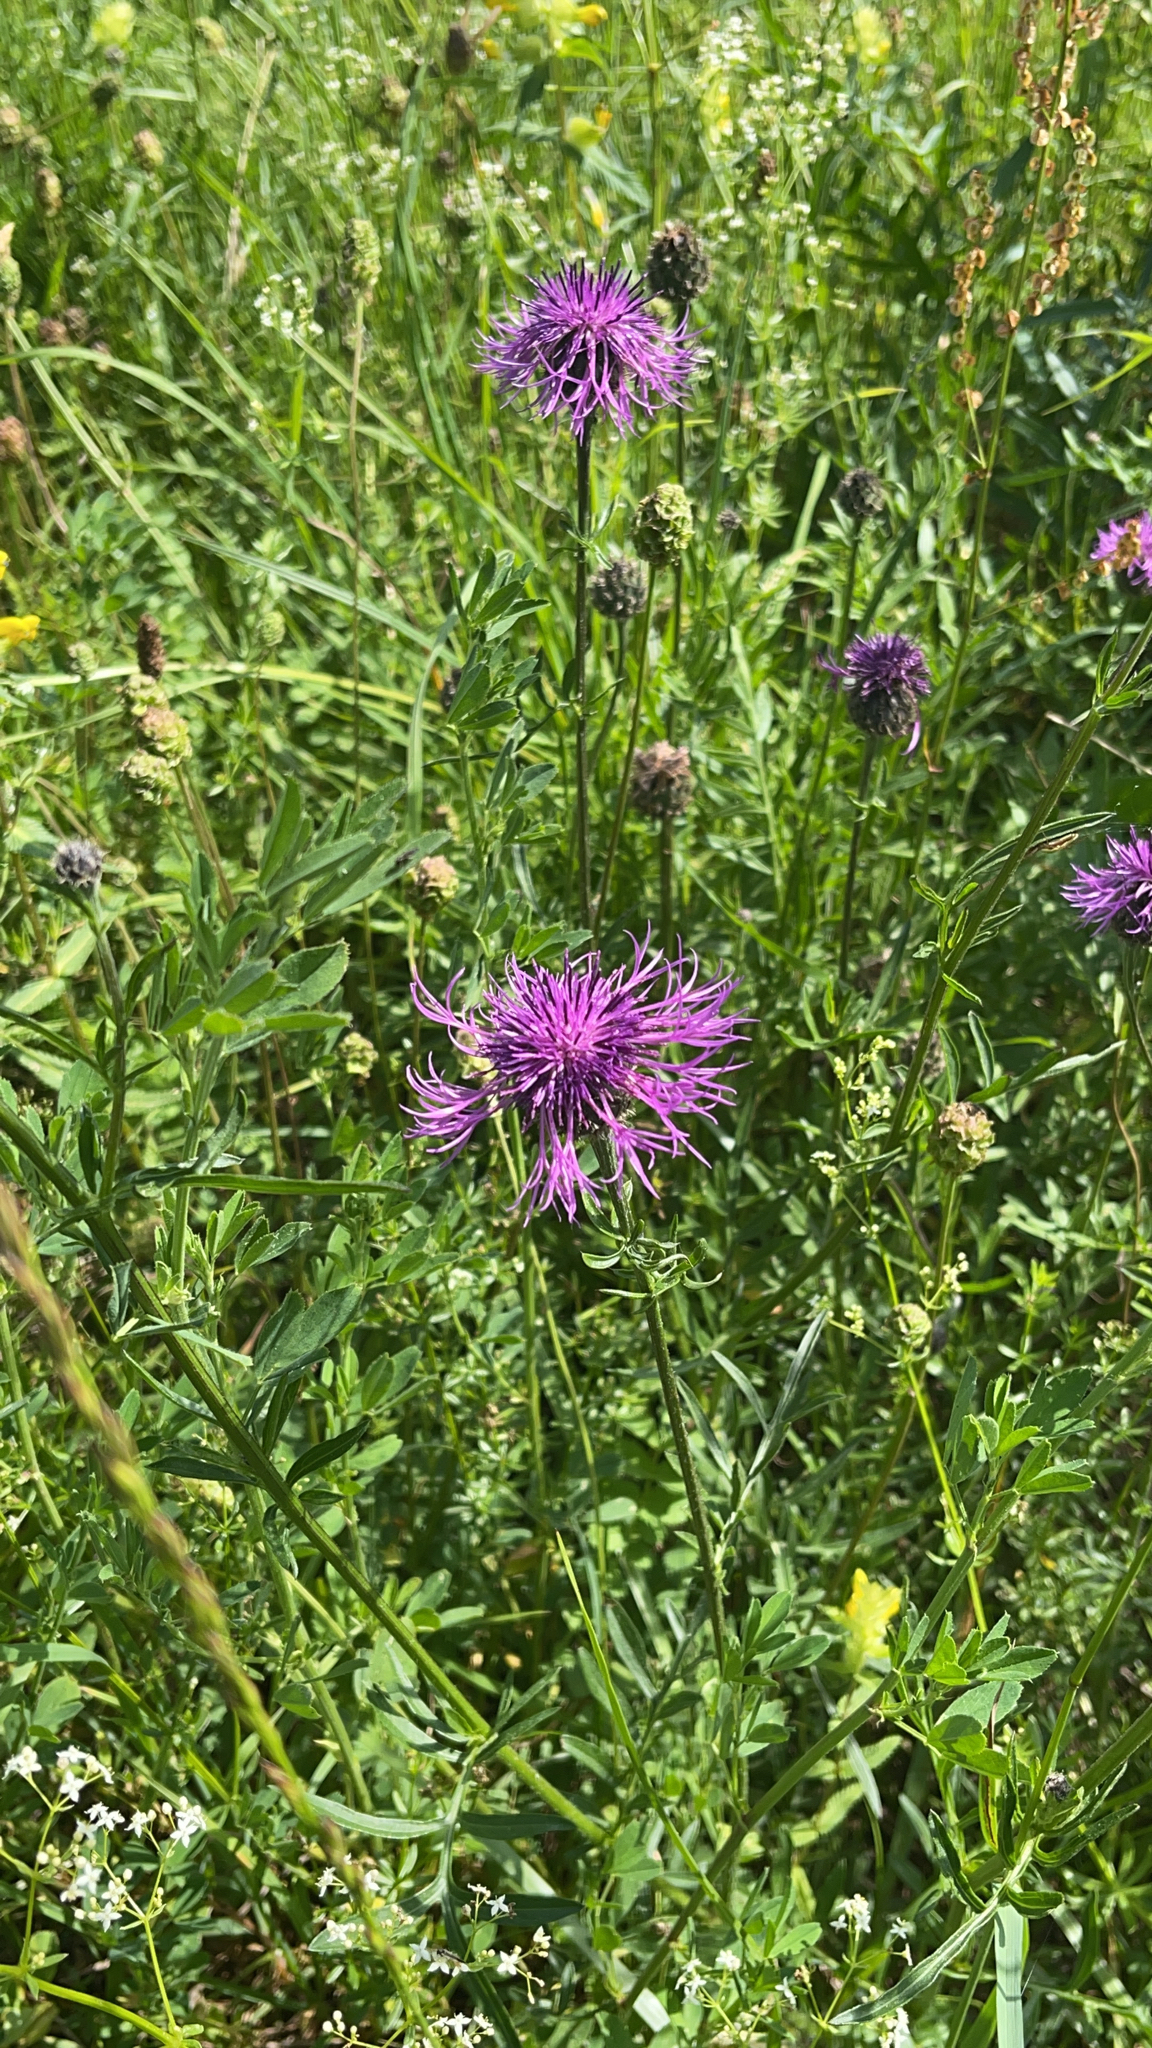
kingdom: Plantae
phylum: Tracheophyta
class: Magnoliopsida
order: Asterales
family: Asteraceae
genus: Centaurea
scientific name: Centaurea scabiosa
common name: Greater knapweed
